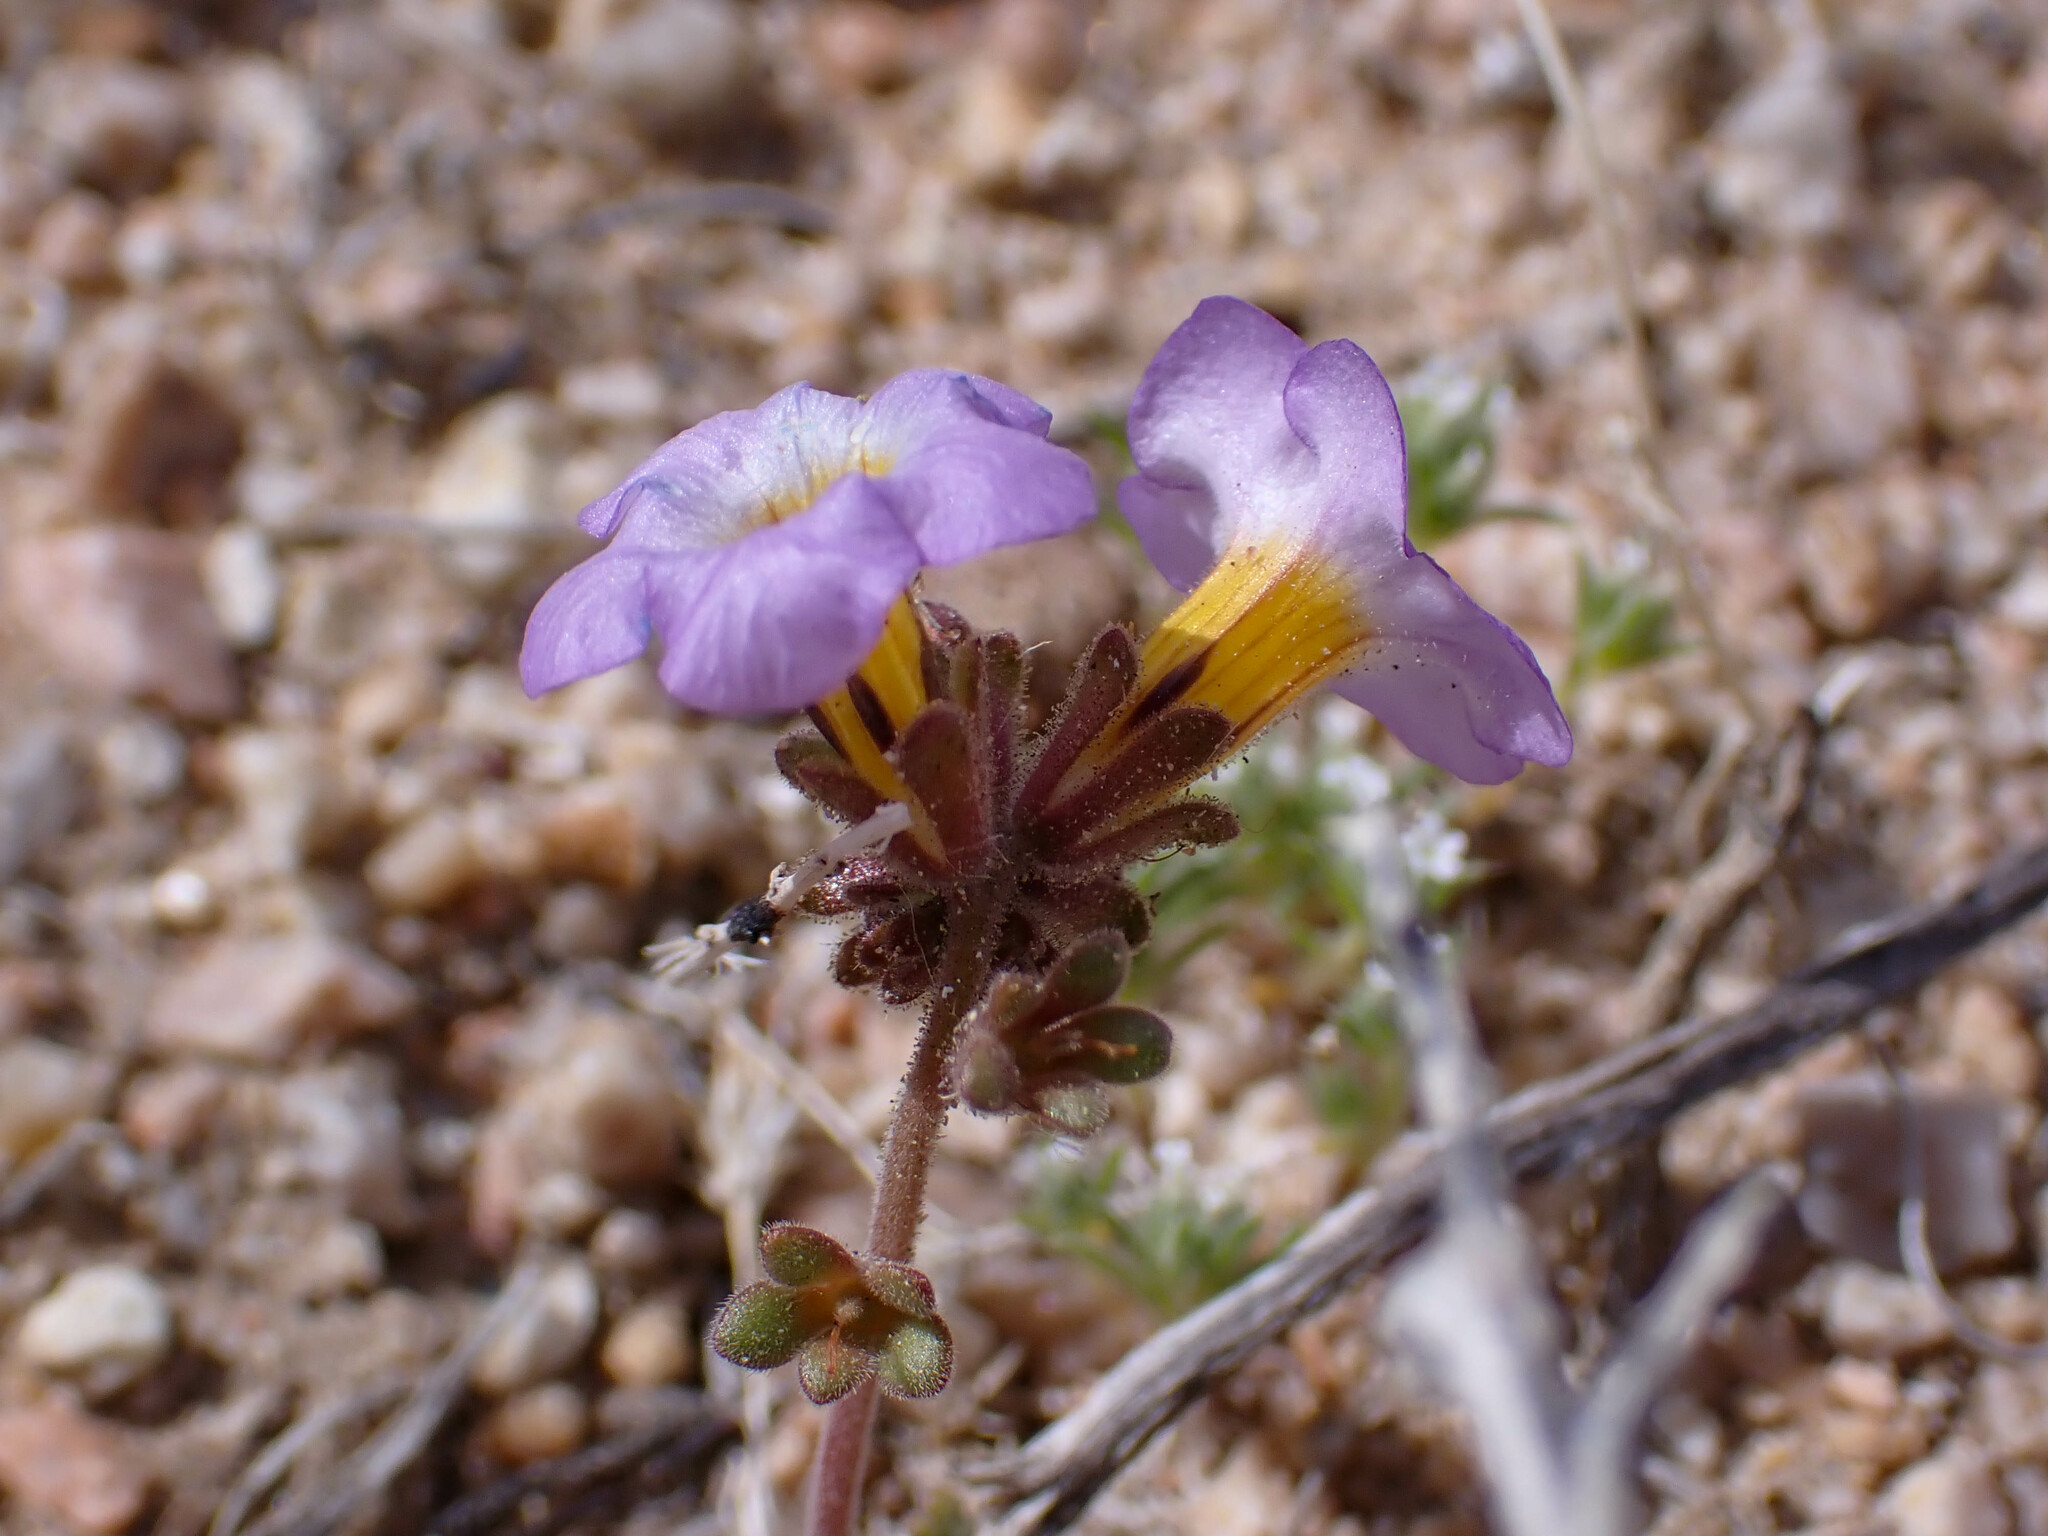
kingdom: Plantae
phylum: Tracheophyta
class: Magnoliopsida
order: Boraginales
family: Hydrophyllaceae
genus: Phacelia
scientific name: Phacelia fremontii
